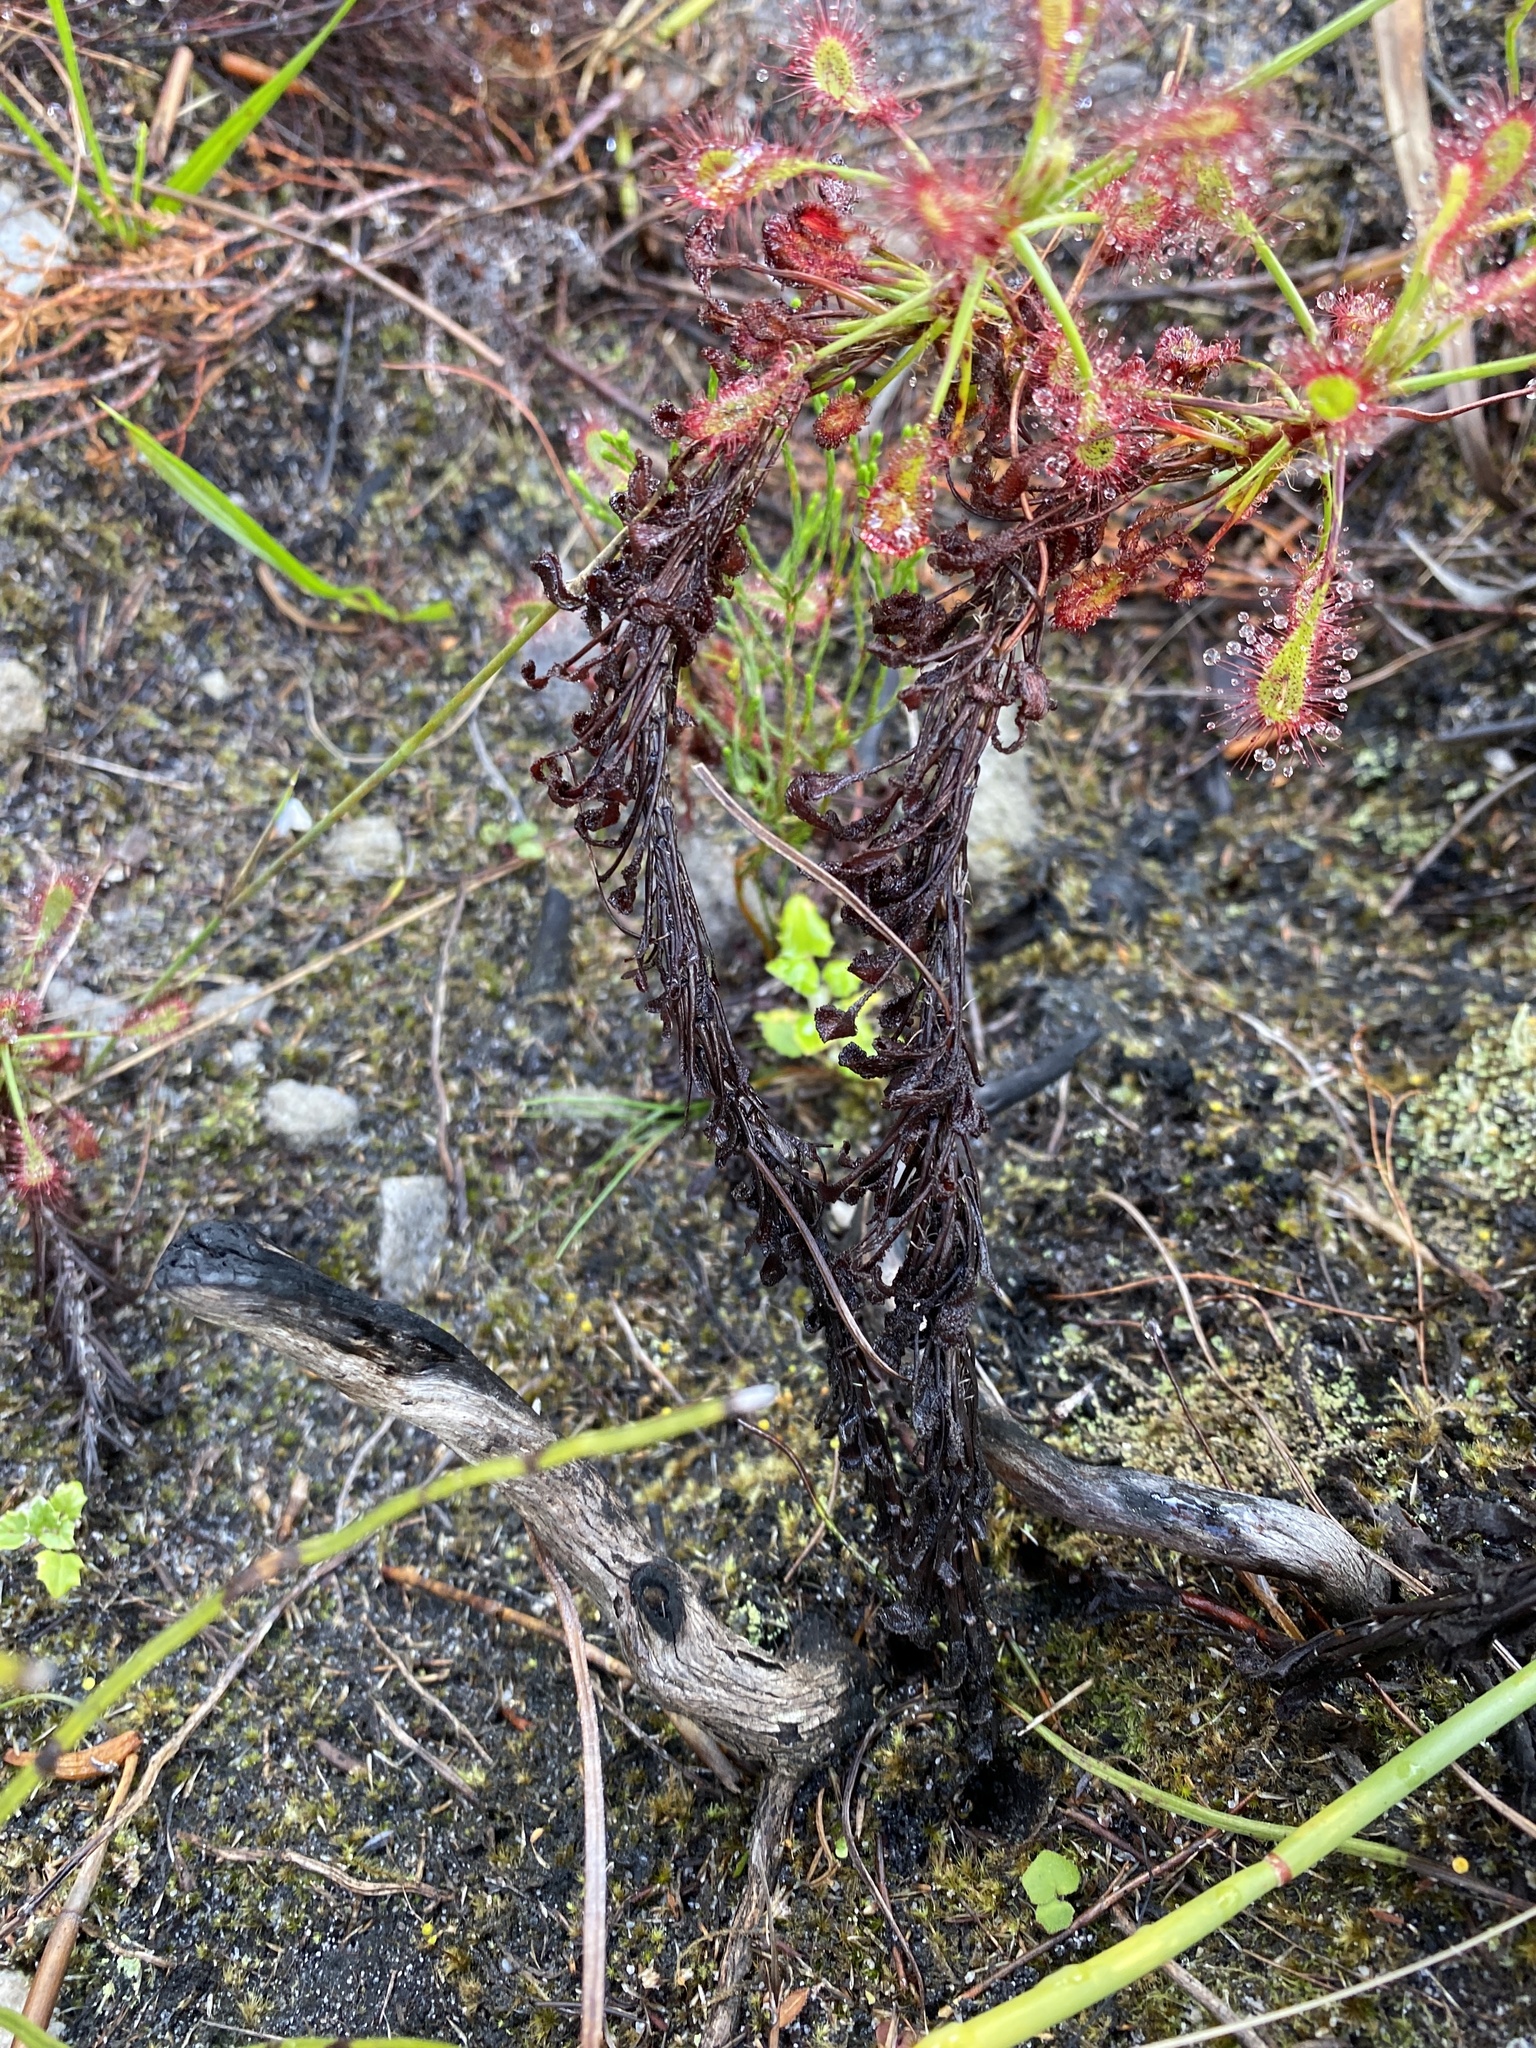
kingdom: Plantae
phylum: Tracheophyta
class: Magnoliopsida
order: Caryophyllales
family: Droseraceae
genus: Drosera
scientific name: Drosera glabripes
